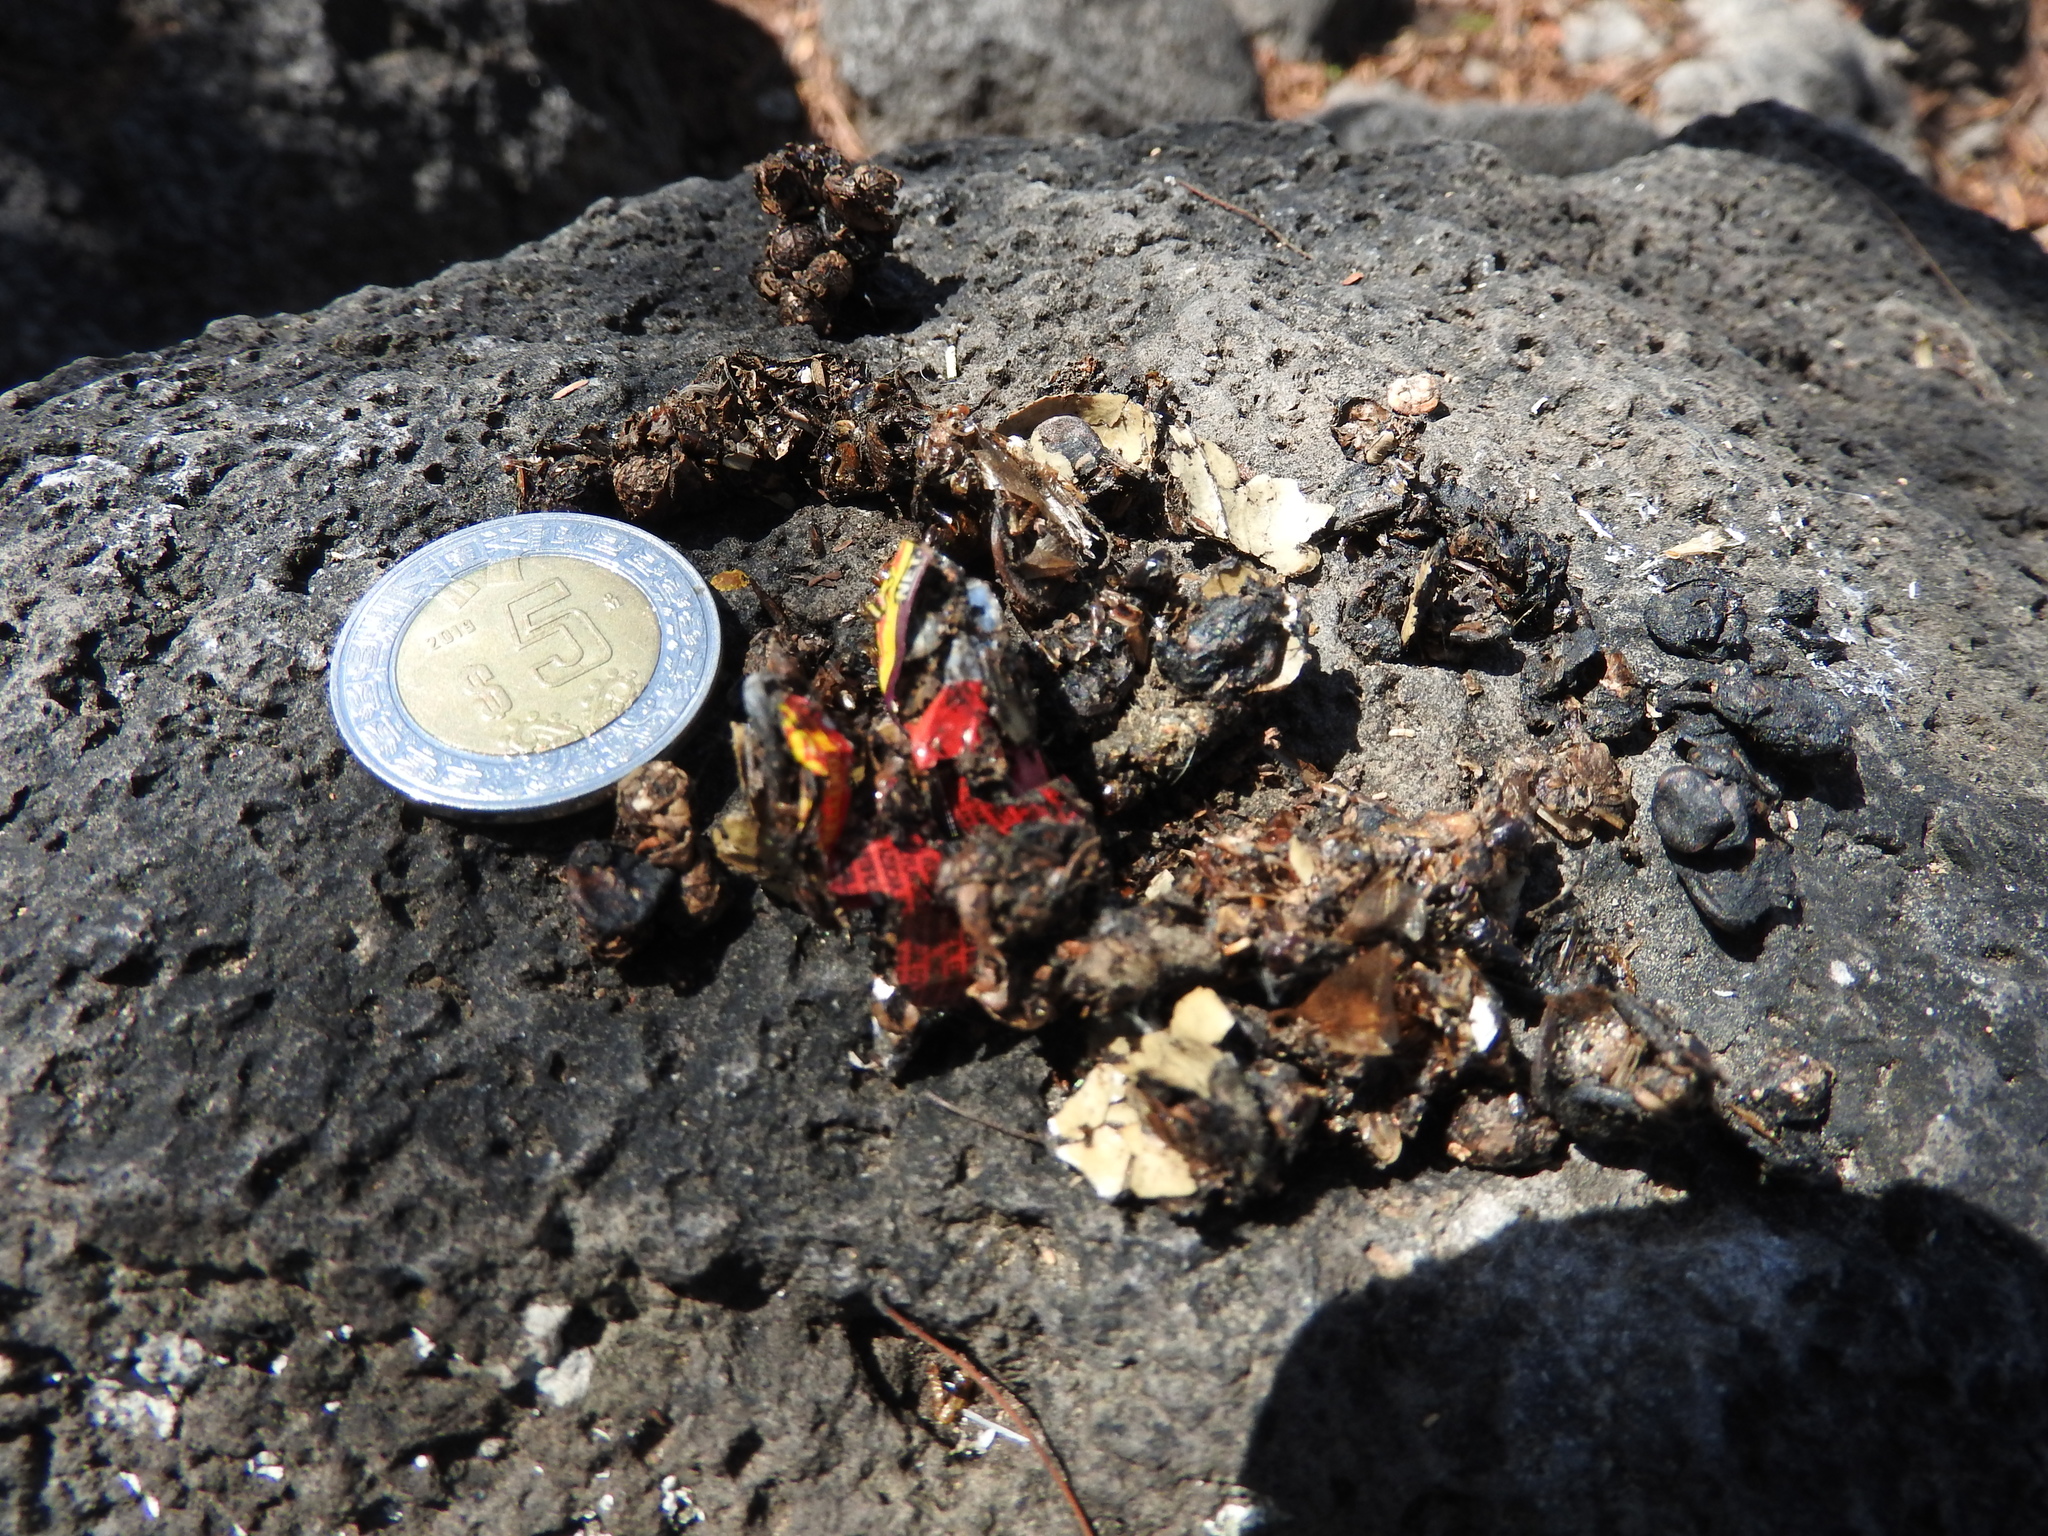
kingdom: Animalia
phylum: Chordata
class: Mammalia
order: Carnivora
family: Canidae
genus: Urocyon
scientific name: Urocyon cinereoargenteus
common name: Gray fox
